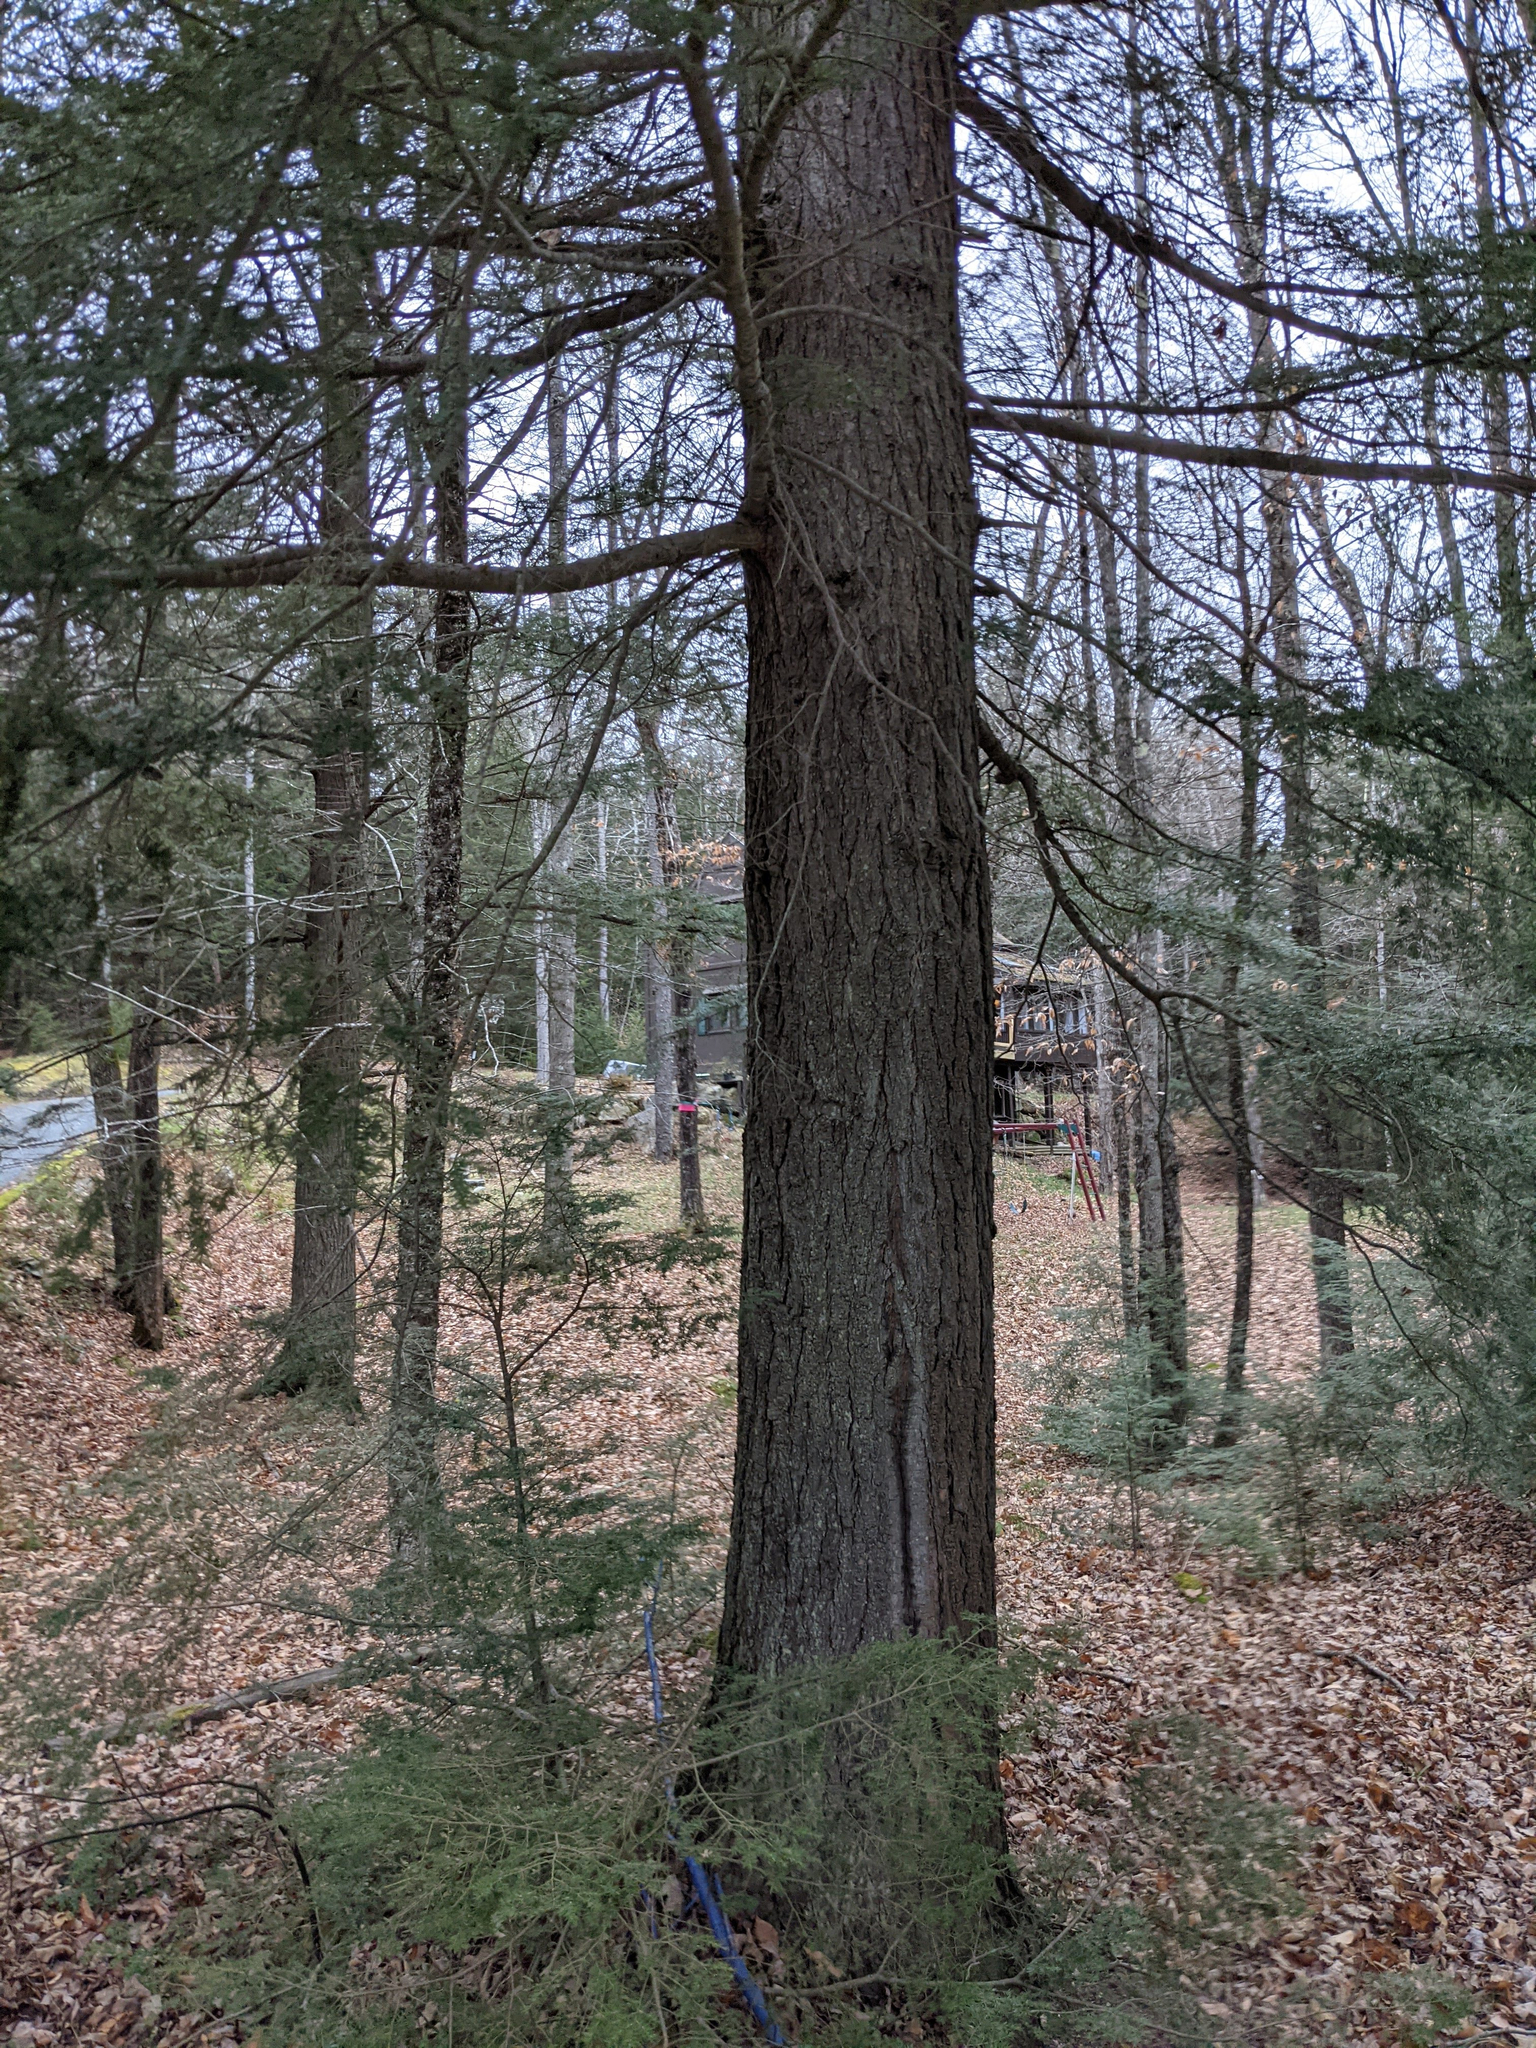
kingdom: Plantae
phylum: Tracheophyta
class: Pinopsida
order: Pinales
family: Pinaceae
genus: Tsuga
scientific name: Tsuga canadensis
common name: Eastern hemlock
